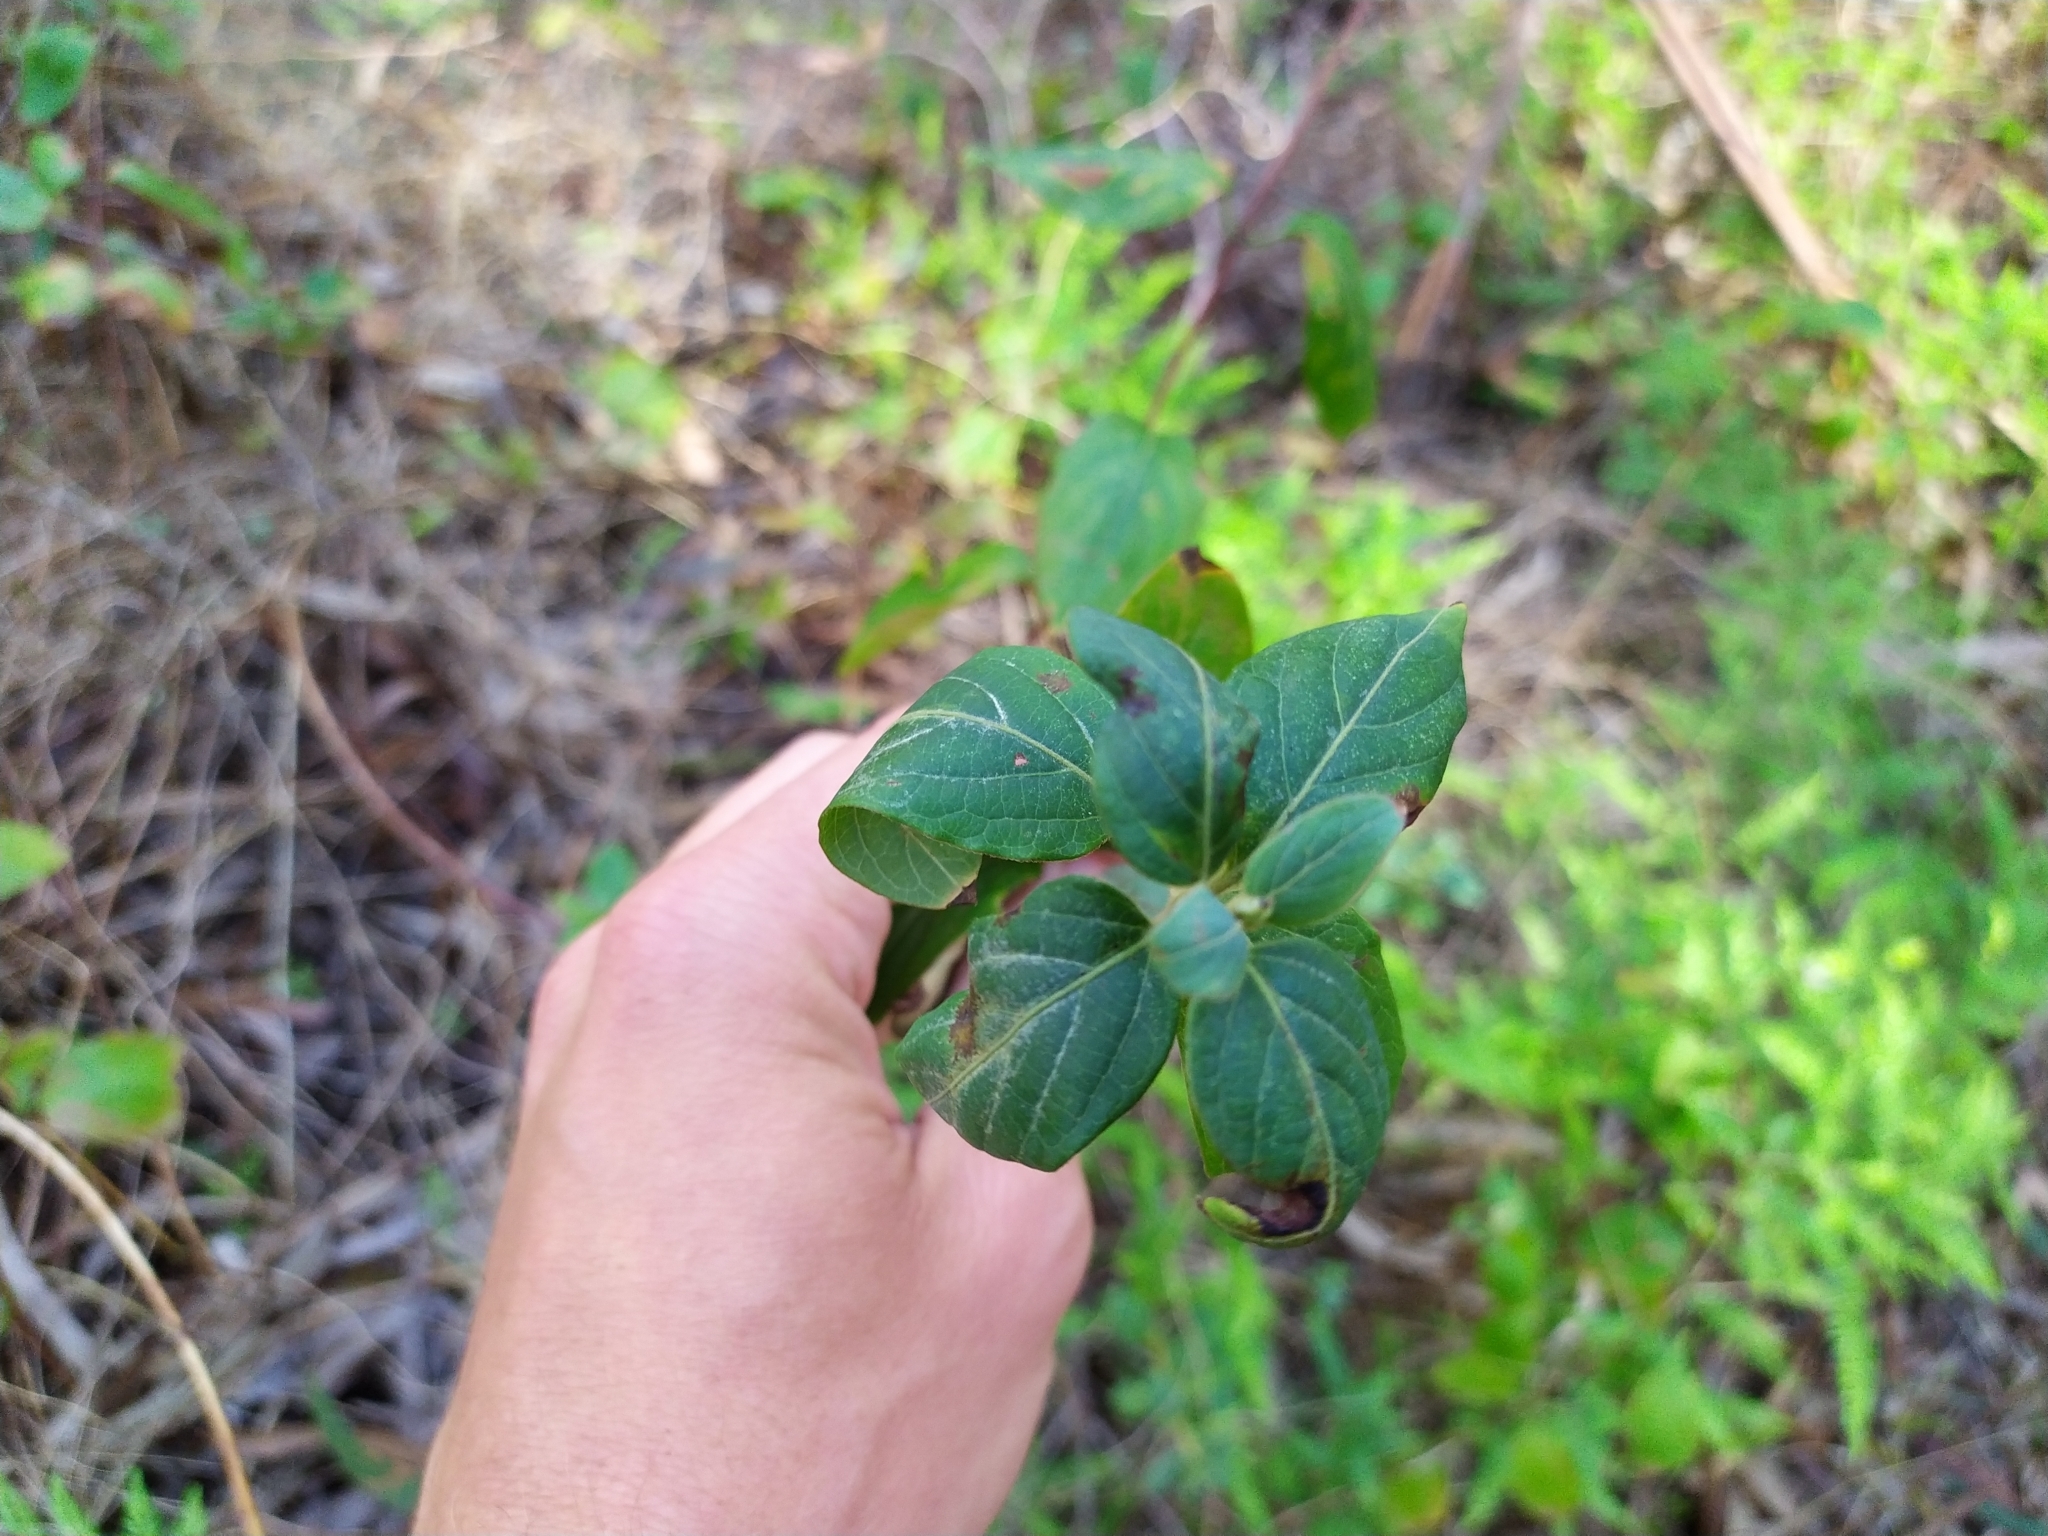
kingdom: Plantae
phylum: Tracheophyta
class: Magnoliopsida
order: Dipsacales
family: Caprifoliaceae
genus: Lonicera
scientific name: Lonicera japonica
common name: Japanese honeysuckle
